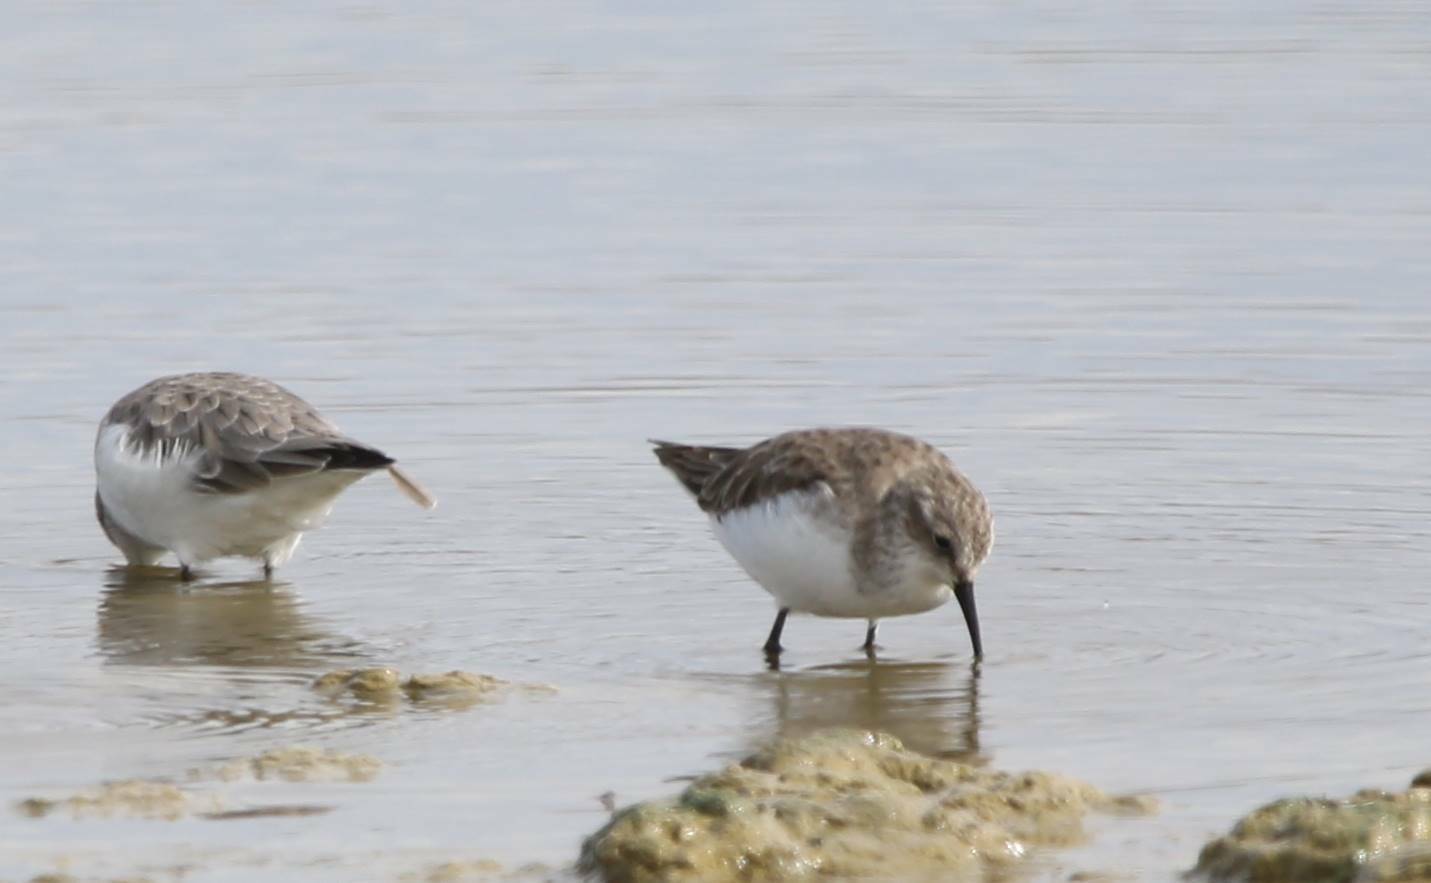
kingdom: Animalia
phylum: Chordata
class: Aves
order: Charadriiformes
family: Scolopacidae
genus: Calidris
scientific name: Calidris minuta
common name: Little stint
